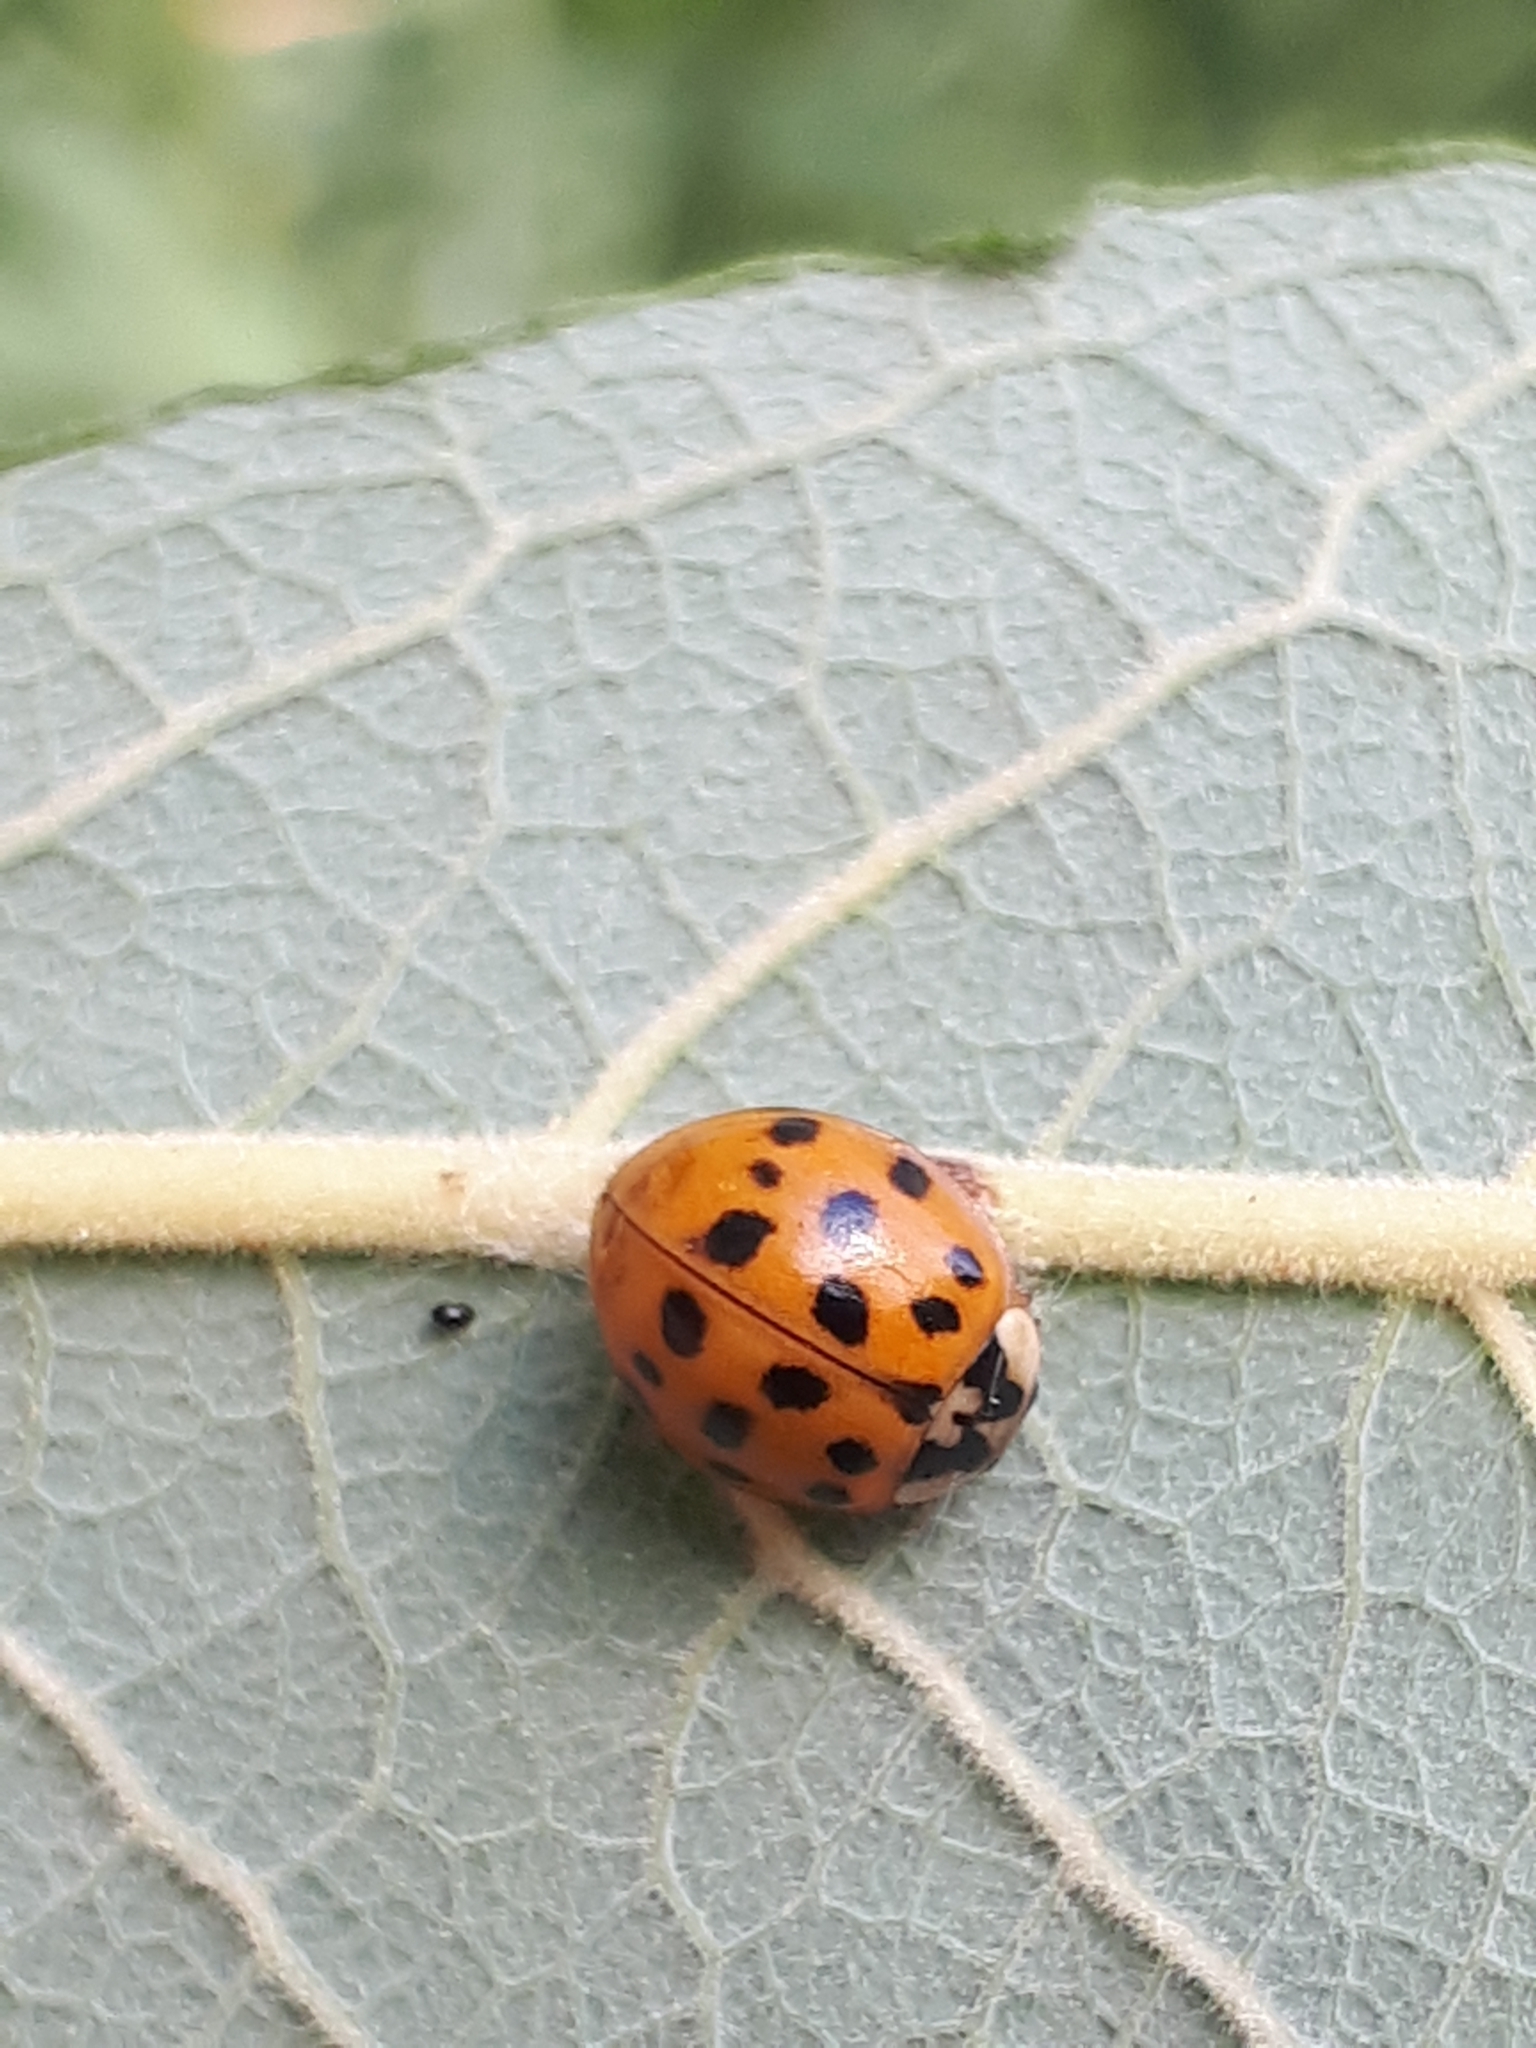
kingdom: Animalia
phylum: Arthropoda
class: Insecta
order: Coleoptera
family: Coccinellidae
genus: Harmonia
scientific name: Harmonia axyridis
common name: Harlequin ladybird
